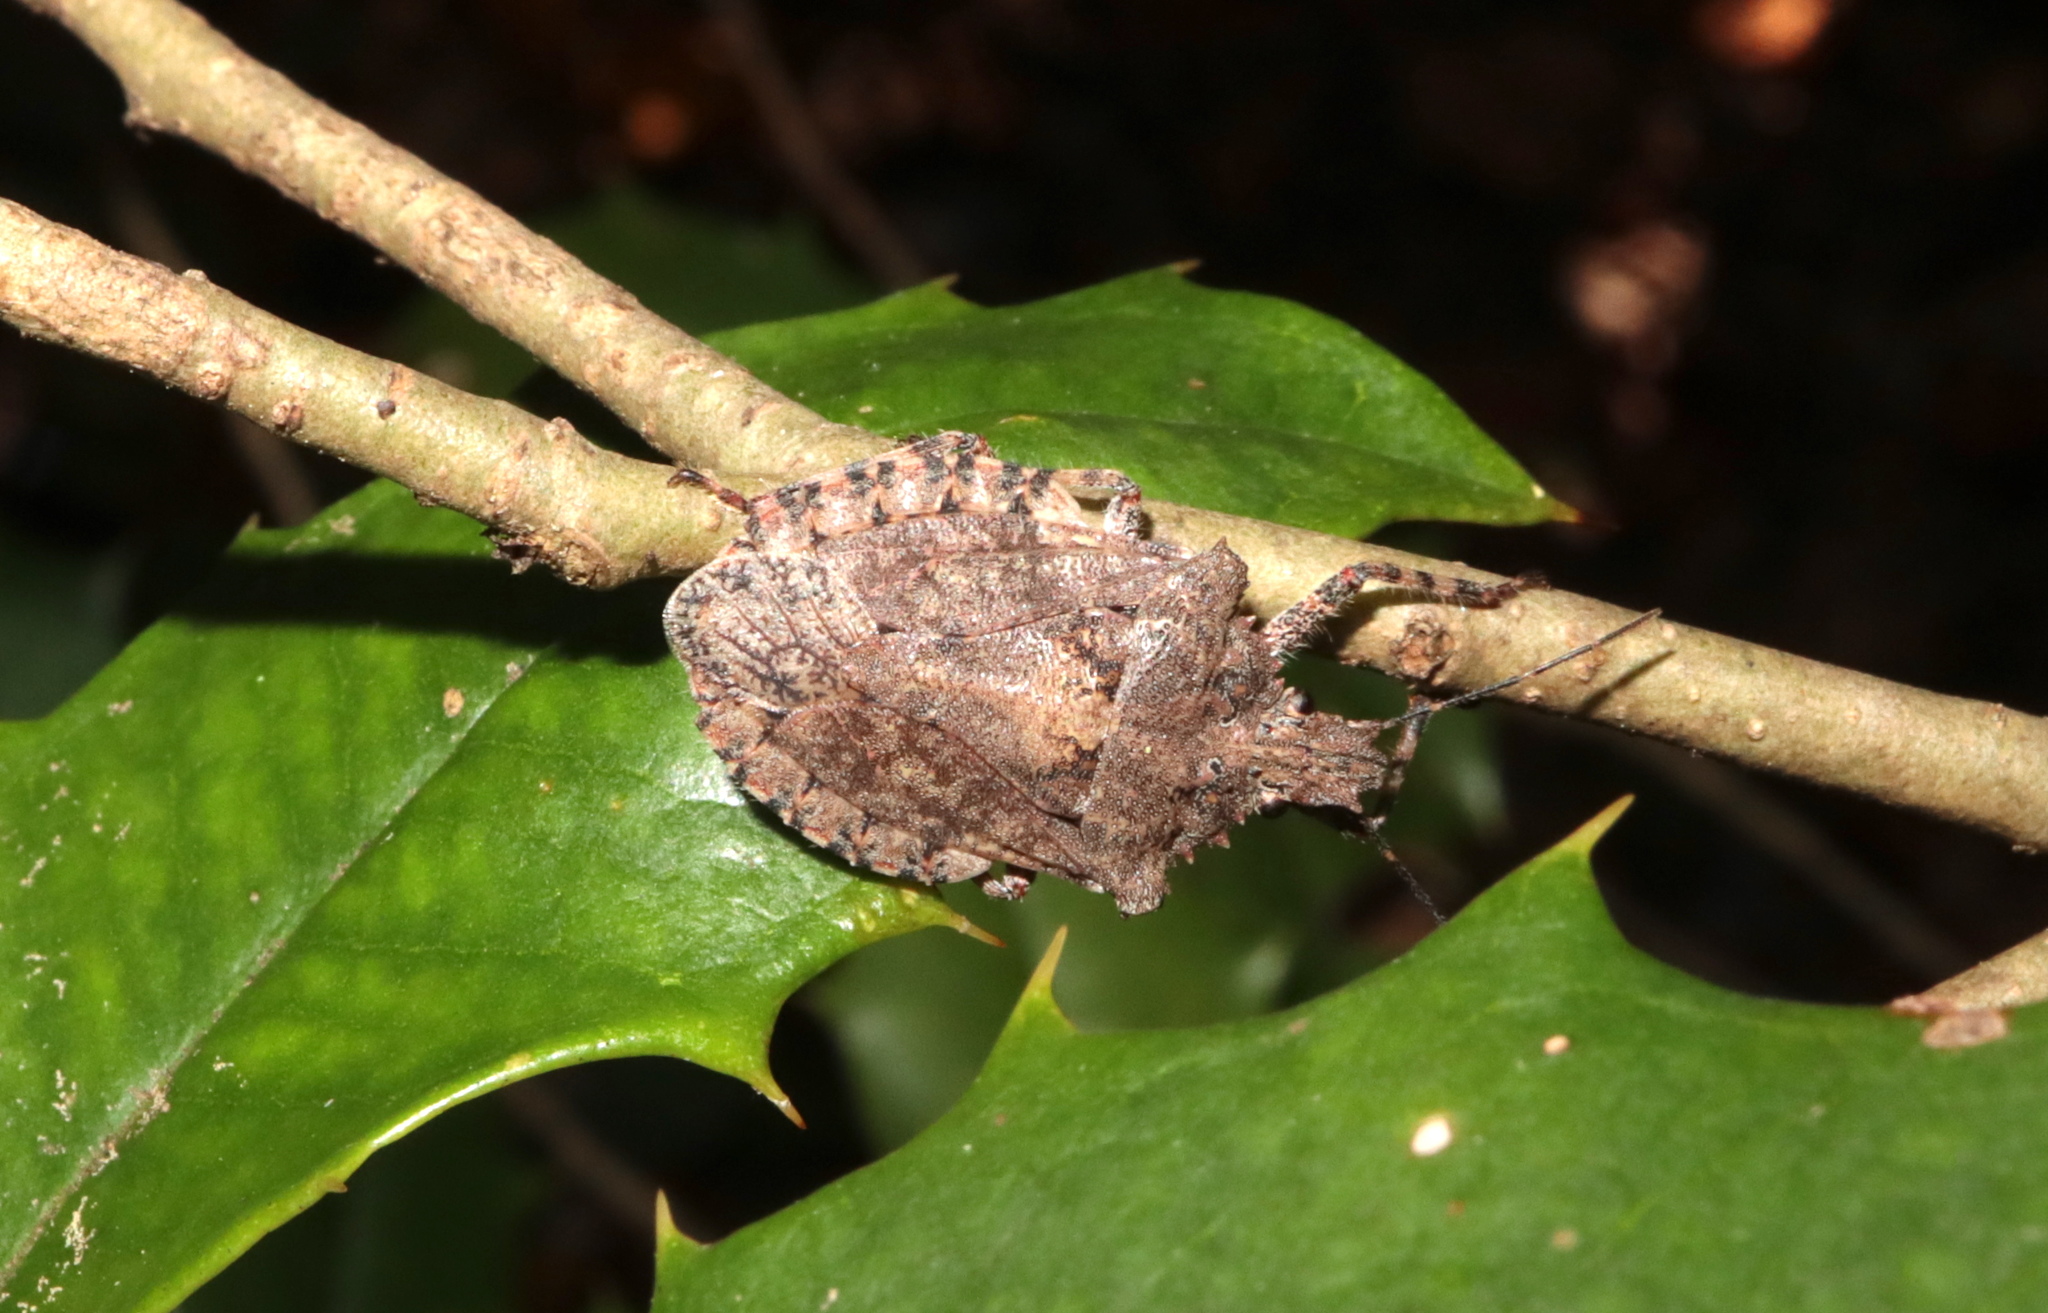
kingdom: Animalia
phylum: Arthropoda
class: Insecta
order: Hemiptera
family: Pentatomidae
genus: Brochymena
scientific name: Brochymena arborea
